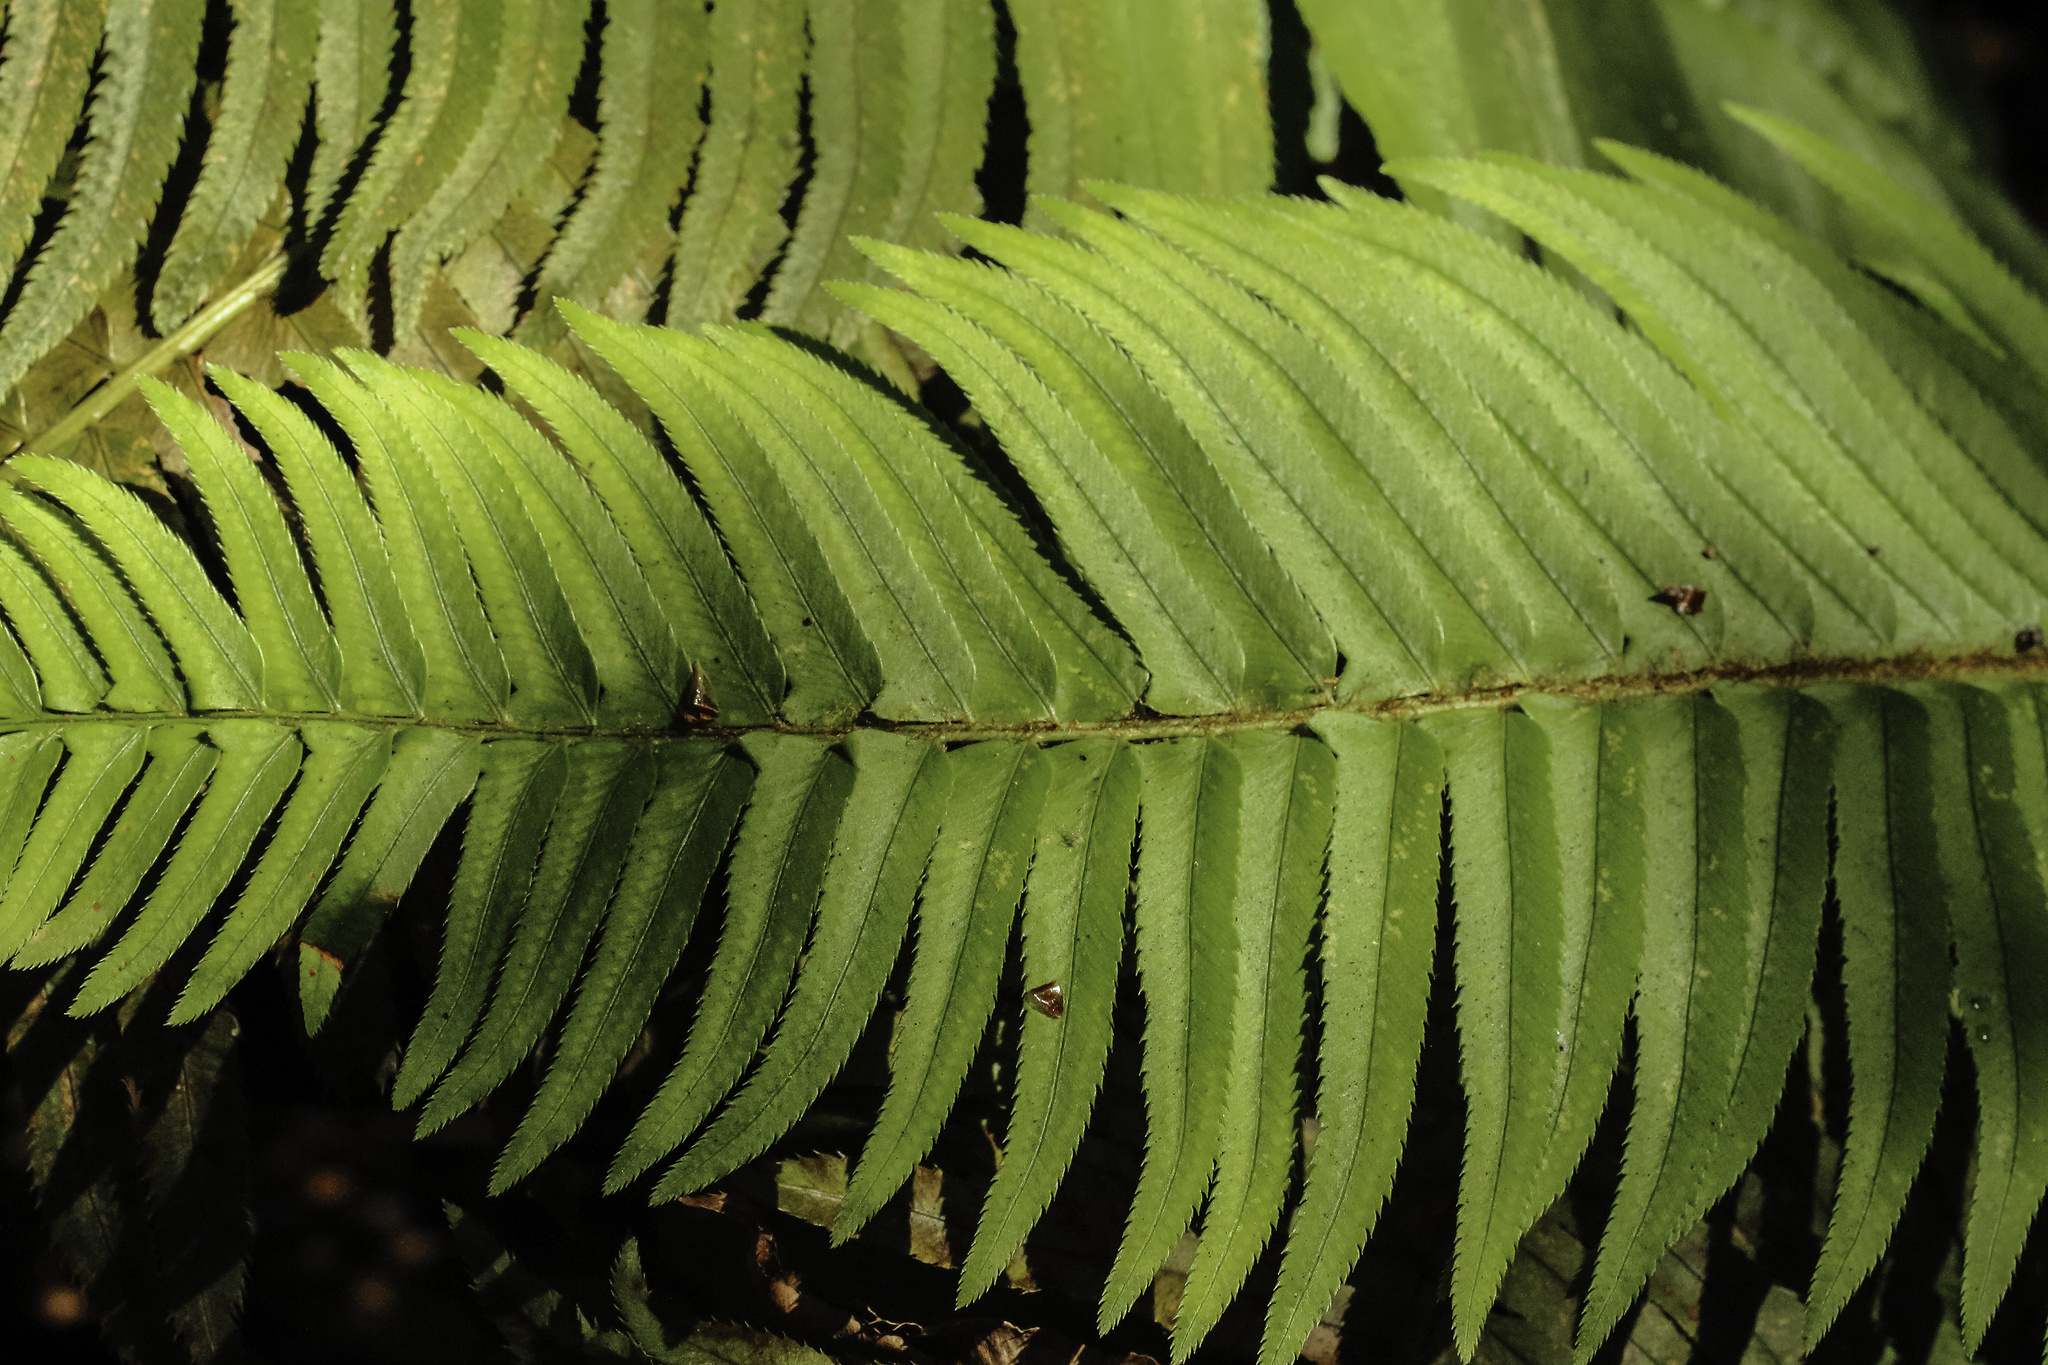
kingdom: Plantae
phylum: Tracheophyta
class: Polypodiopsida
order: Polypodiales
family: Dryopteridaceae
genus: Polystichum
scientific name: Polystichum munitum
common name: Western sword-fern
